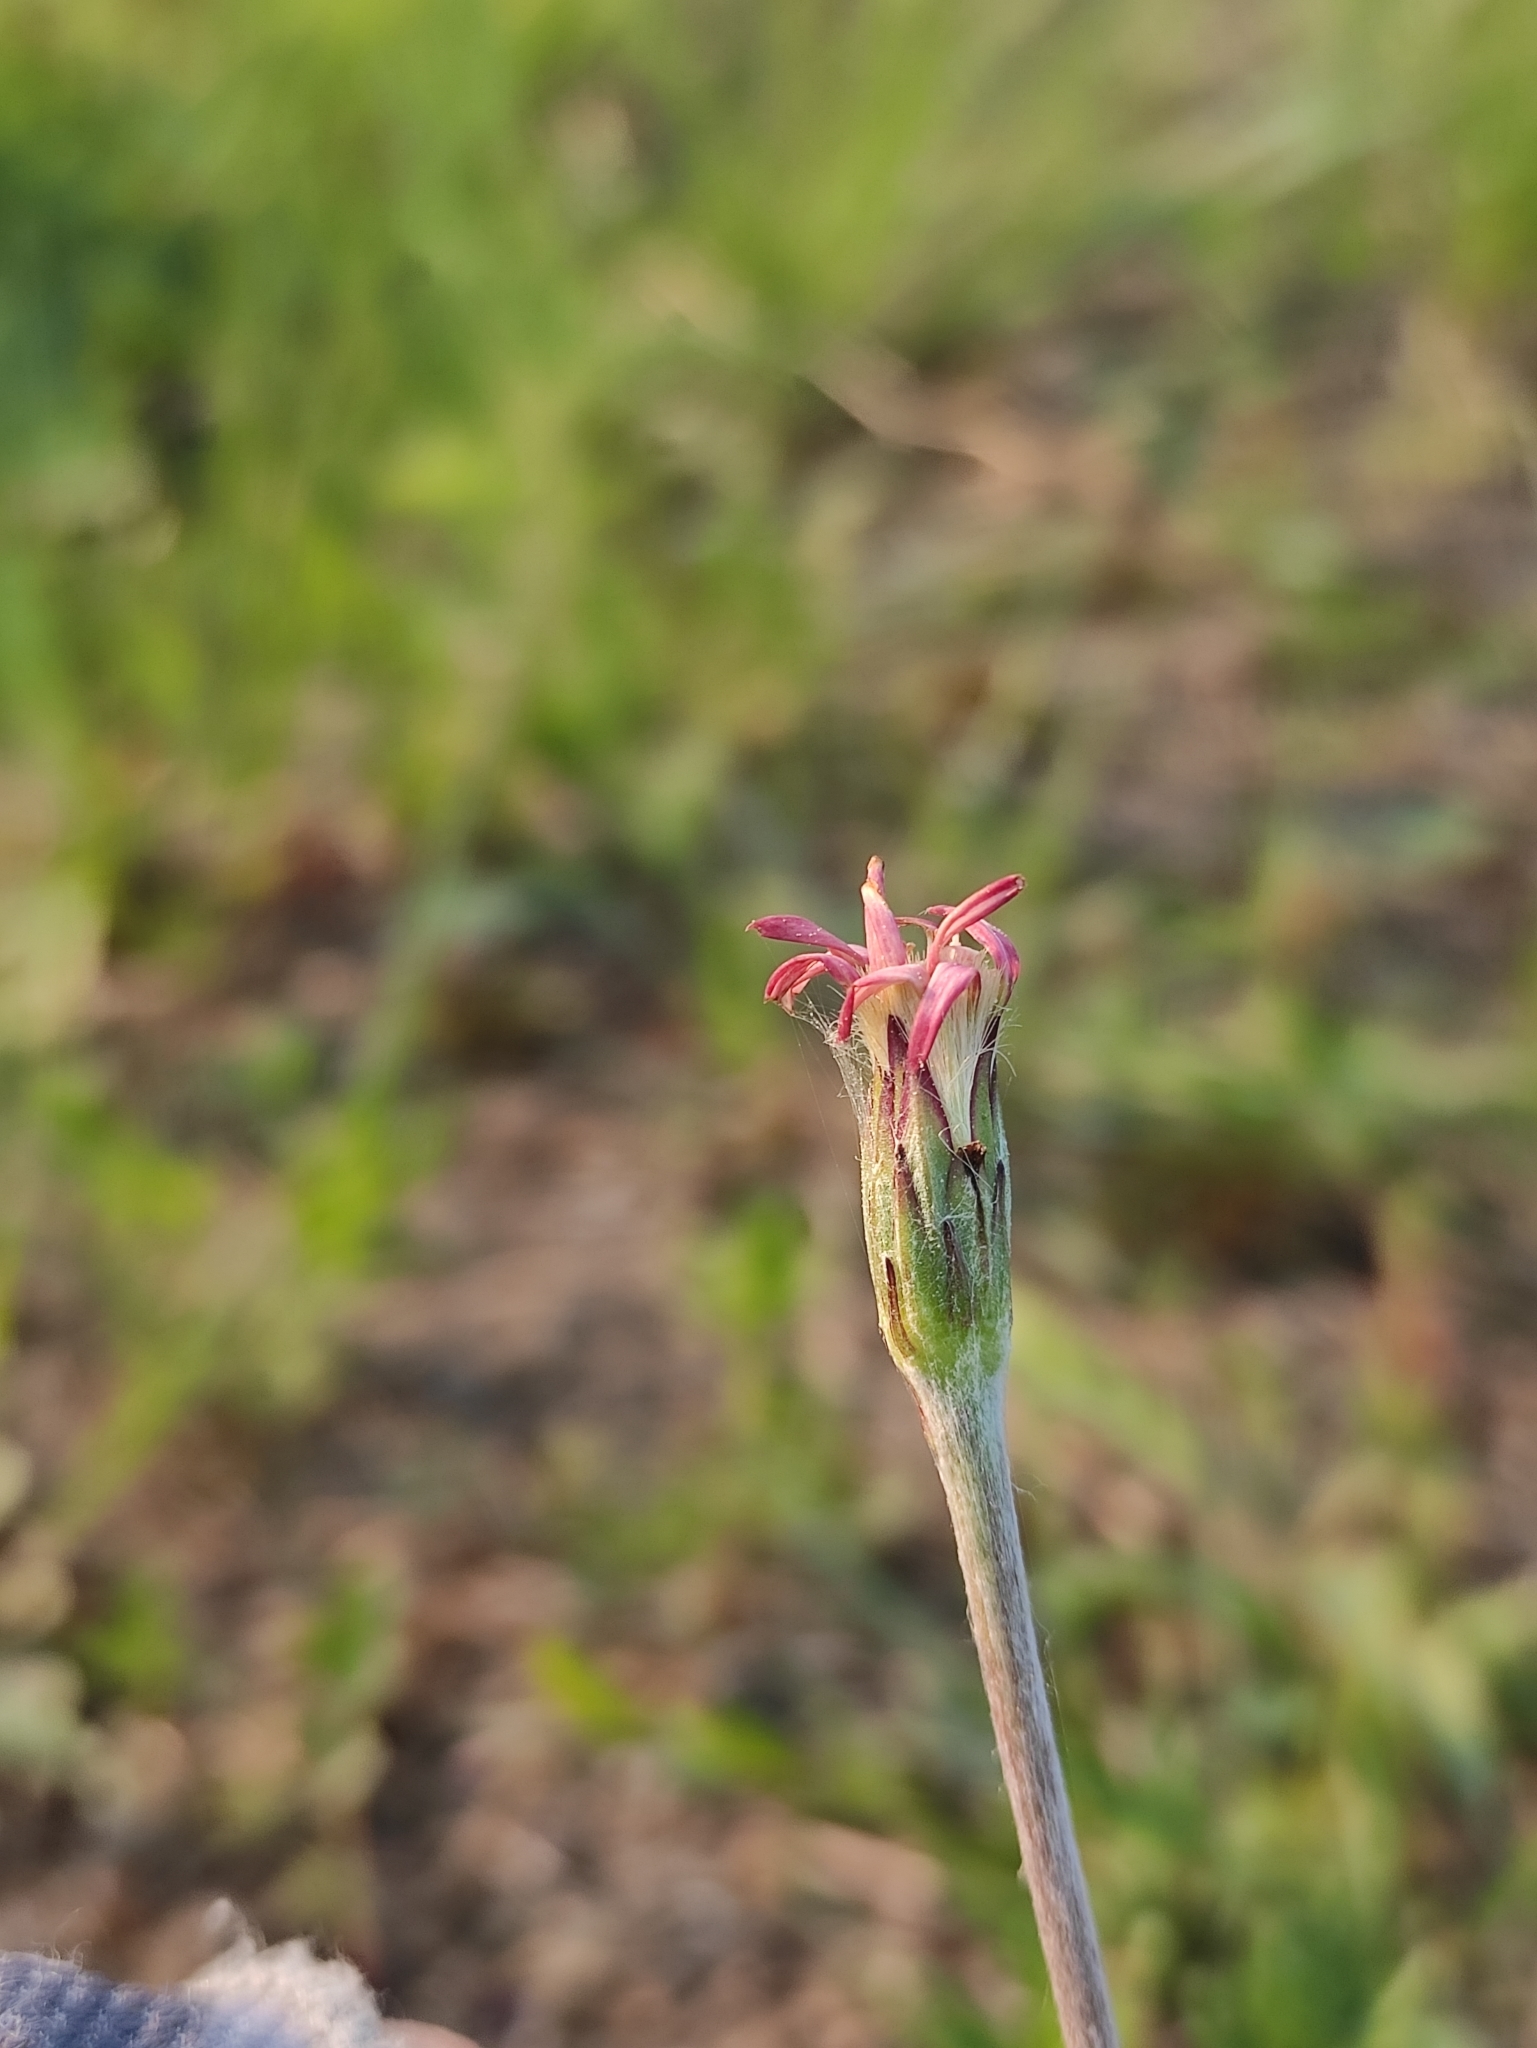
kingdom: Plantae
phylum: Tracheophyta
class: Magnoliopsida
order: Asterales
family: Asteraceae
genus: Leibnitzia
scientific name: Leibnitzia anandria
